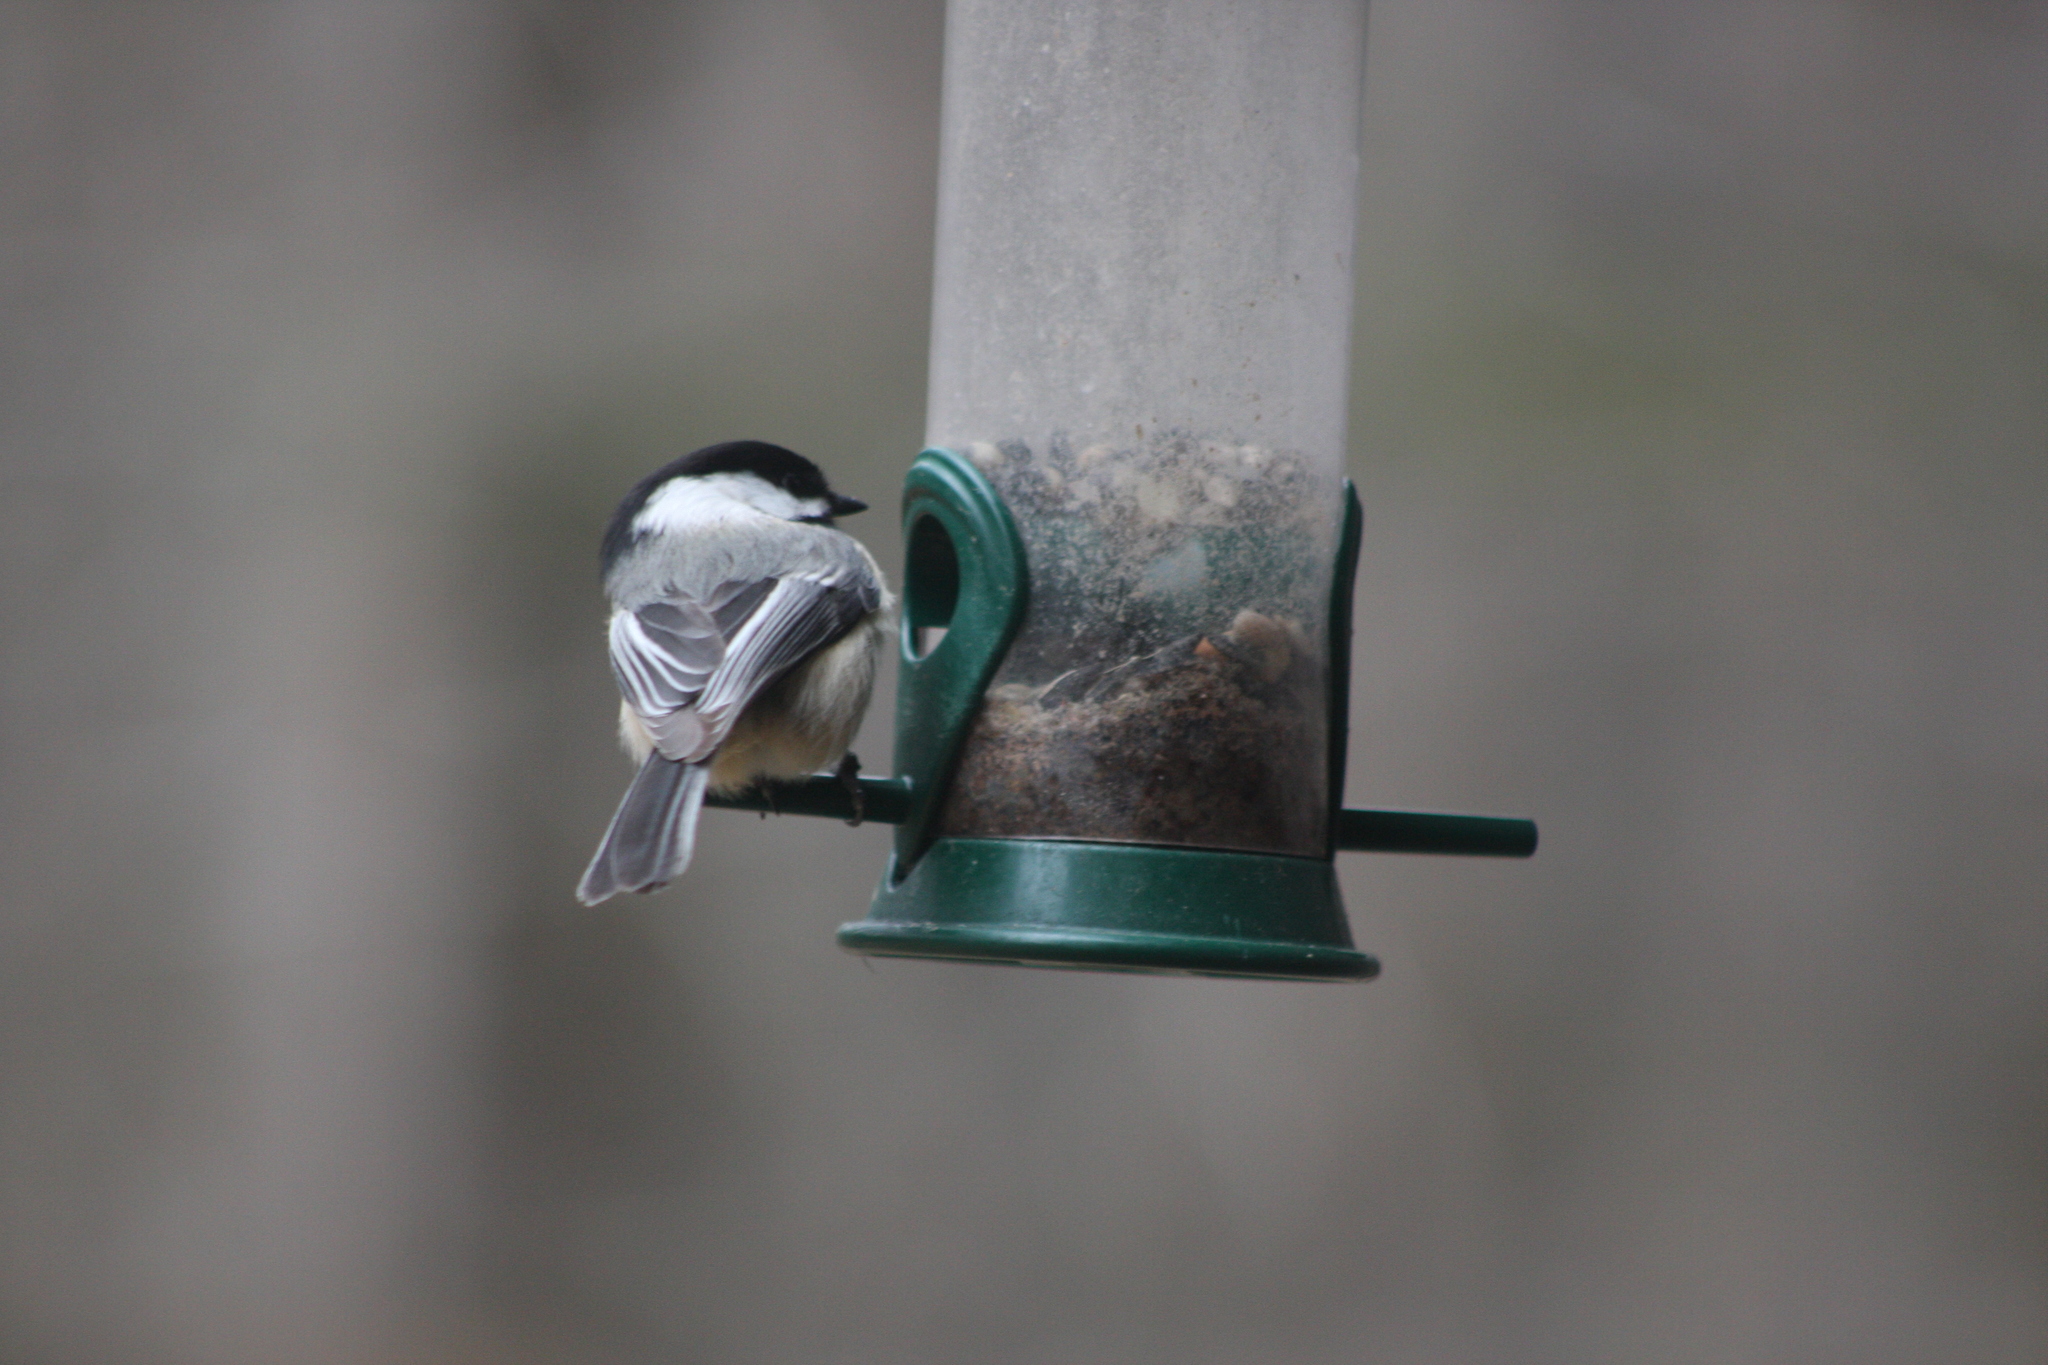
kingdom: Animalia
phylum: Chordata
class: Aves
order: Passeriformes
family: Paridae
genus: Poecile
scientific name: Poecile atricapillus
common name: Black-capped chickadee
